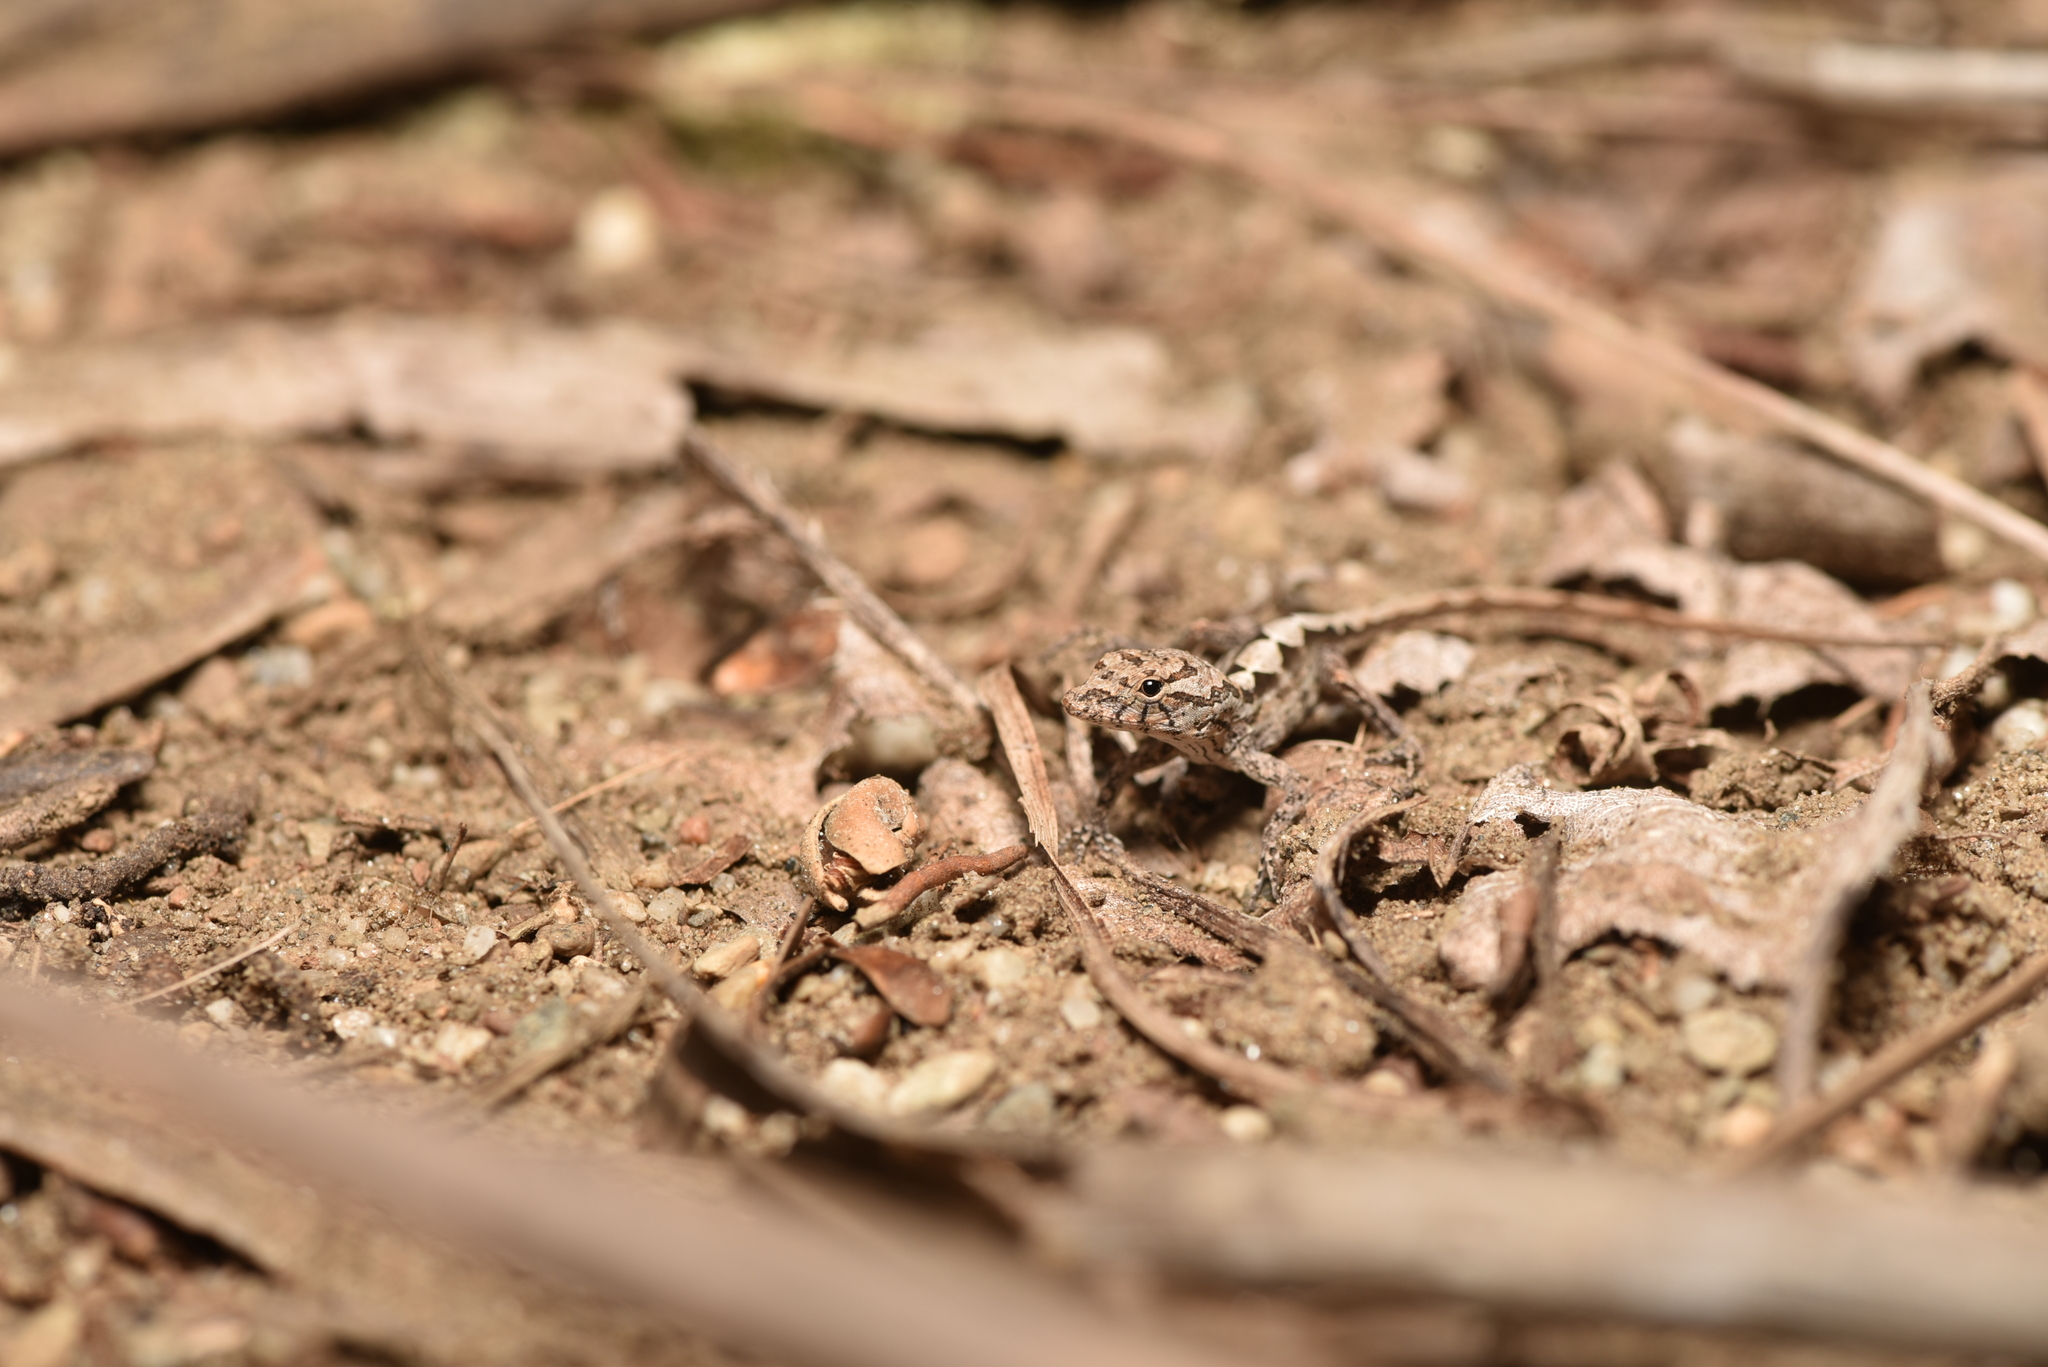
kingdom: Animalia
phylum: Chordata
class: Squamata
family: Dactyloidae
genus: Anolis
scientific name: Anolis sagrei
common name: Brown anole
